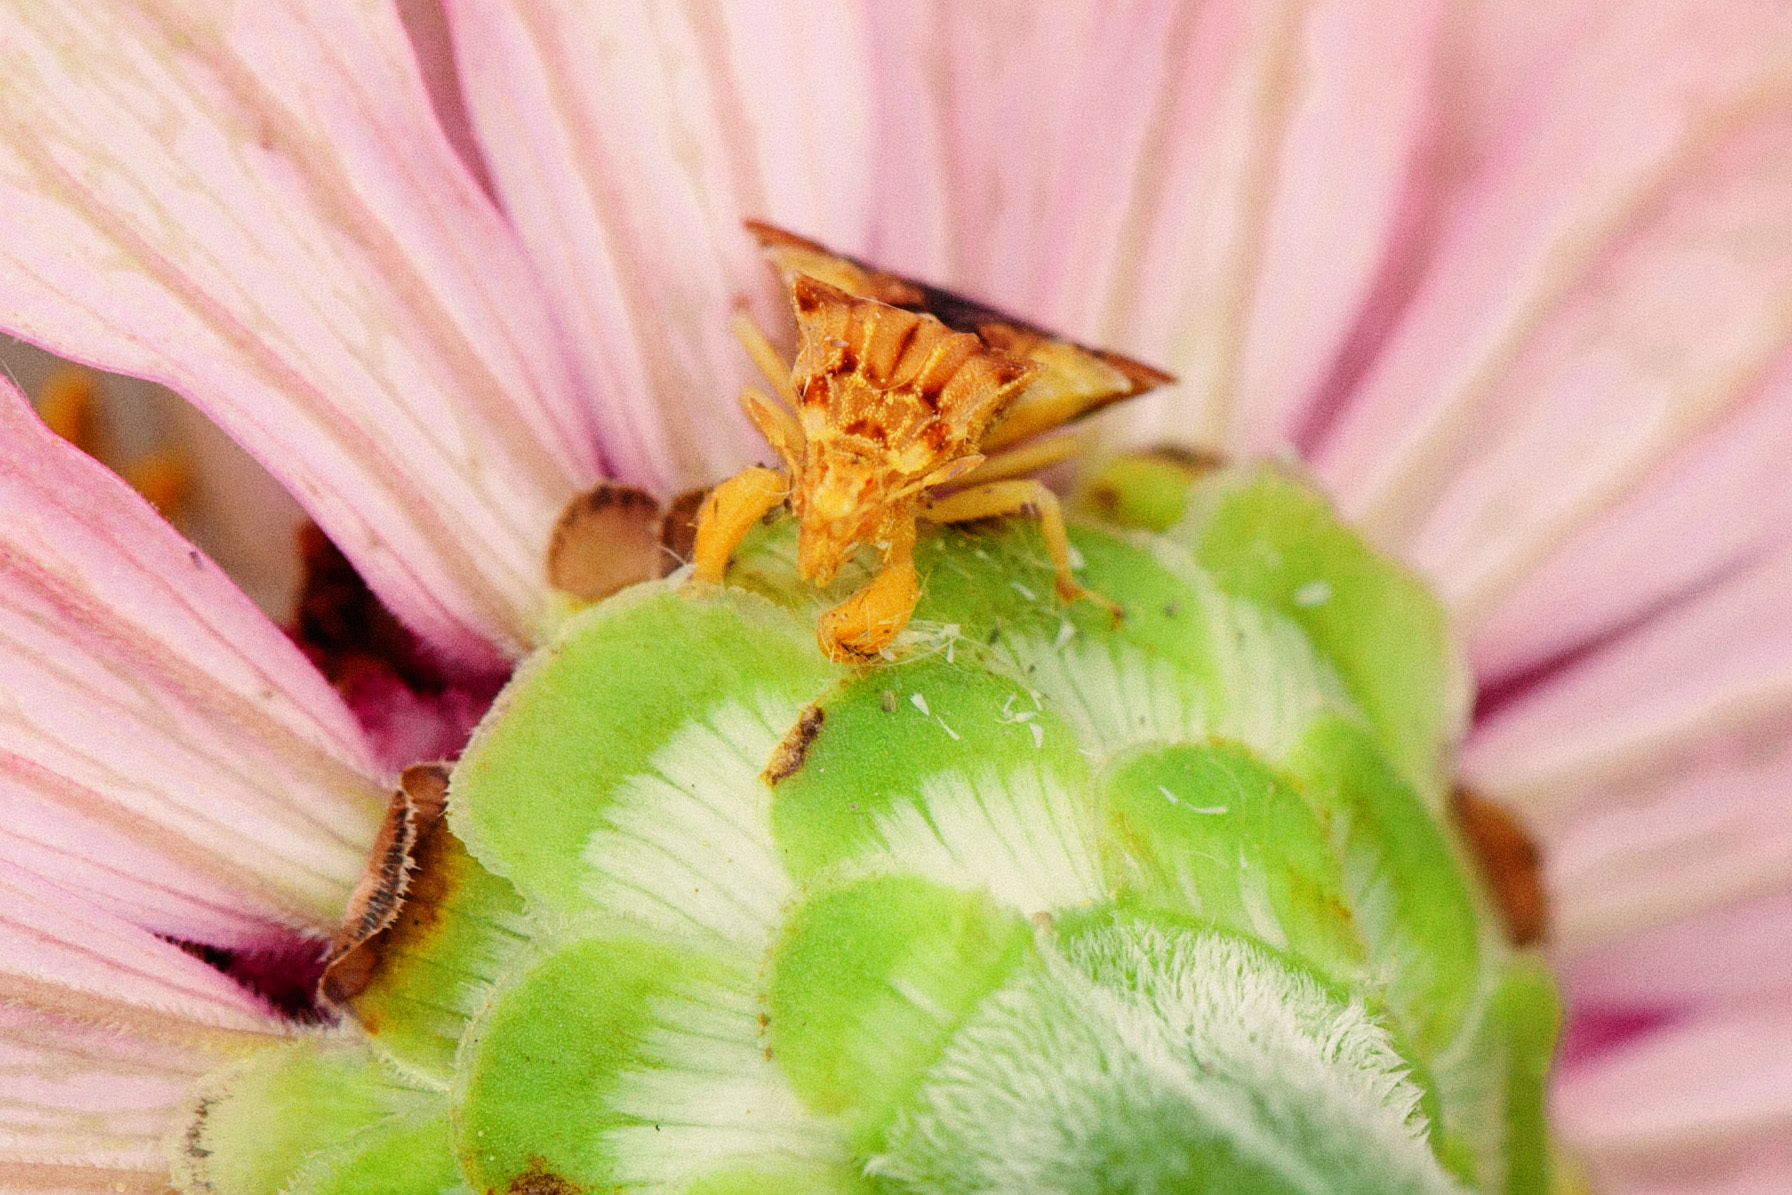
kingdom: Animalia
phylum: Arthropoda
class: Insecta
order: Hemiptera
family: Reduviidae
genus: Phymata
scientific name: Phymata fasciata
